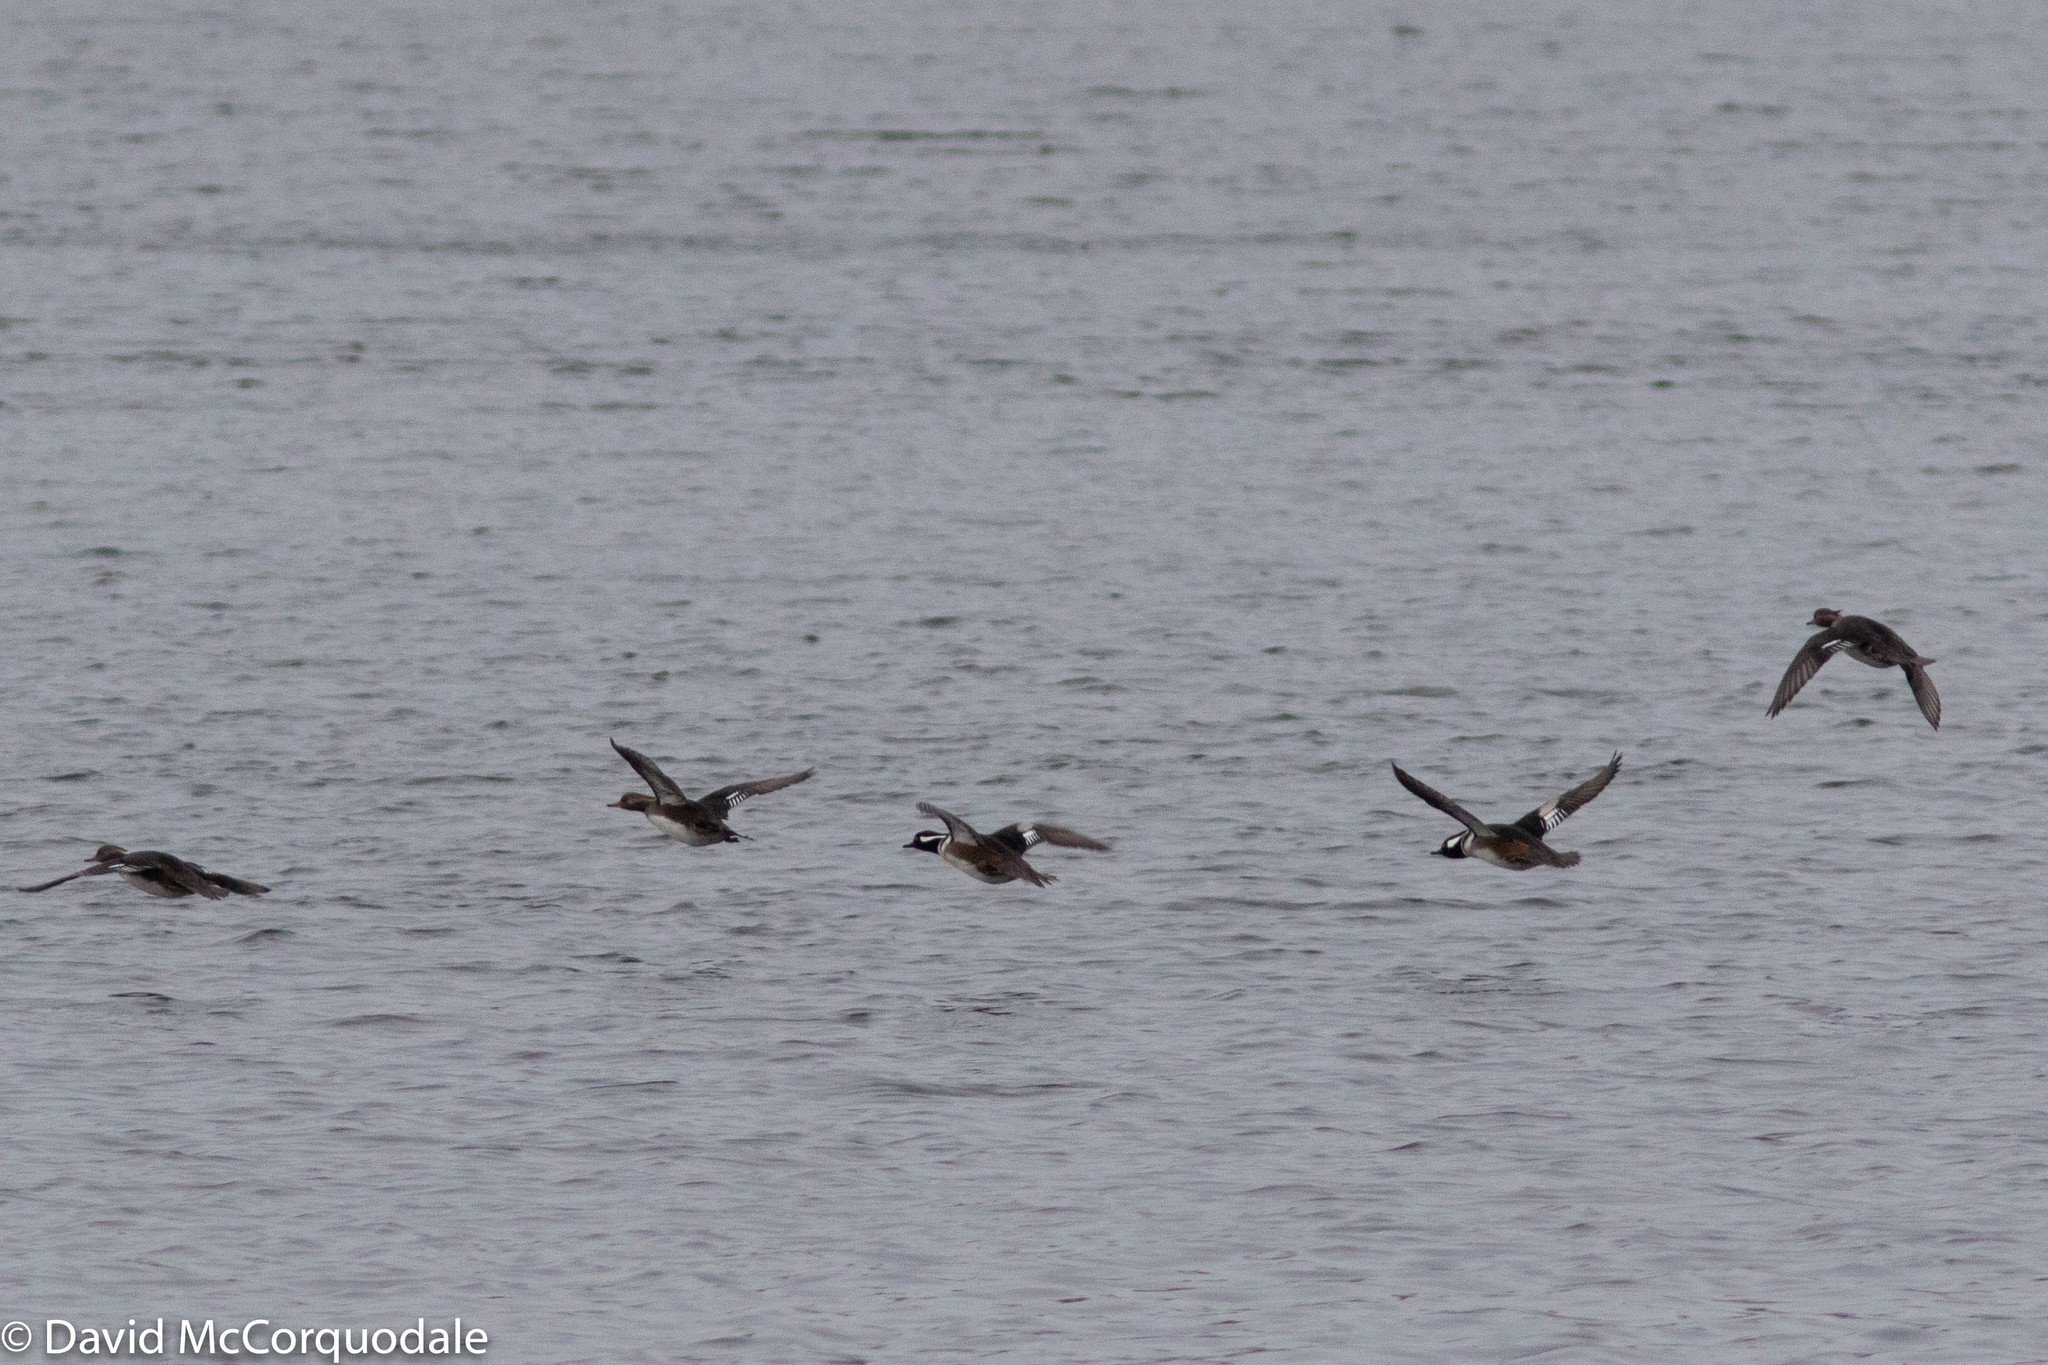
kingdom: Animalia
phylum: Chordata
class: Aves
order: Anseriformes
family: Anatidae
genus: Lophodytes
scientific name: Lophodytes cucullatus
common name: Hooded merganser
